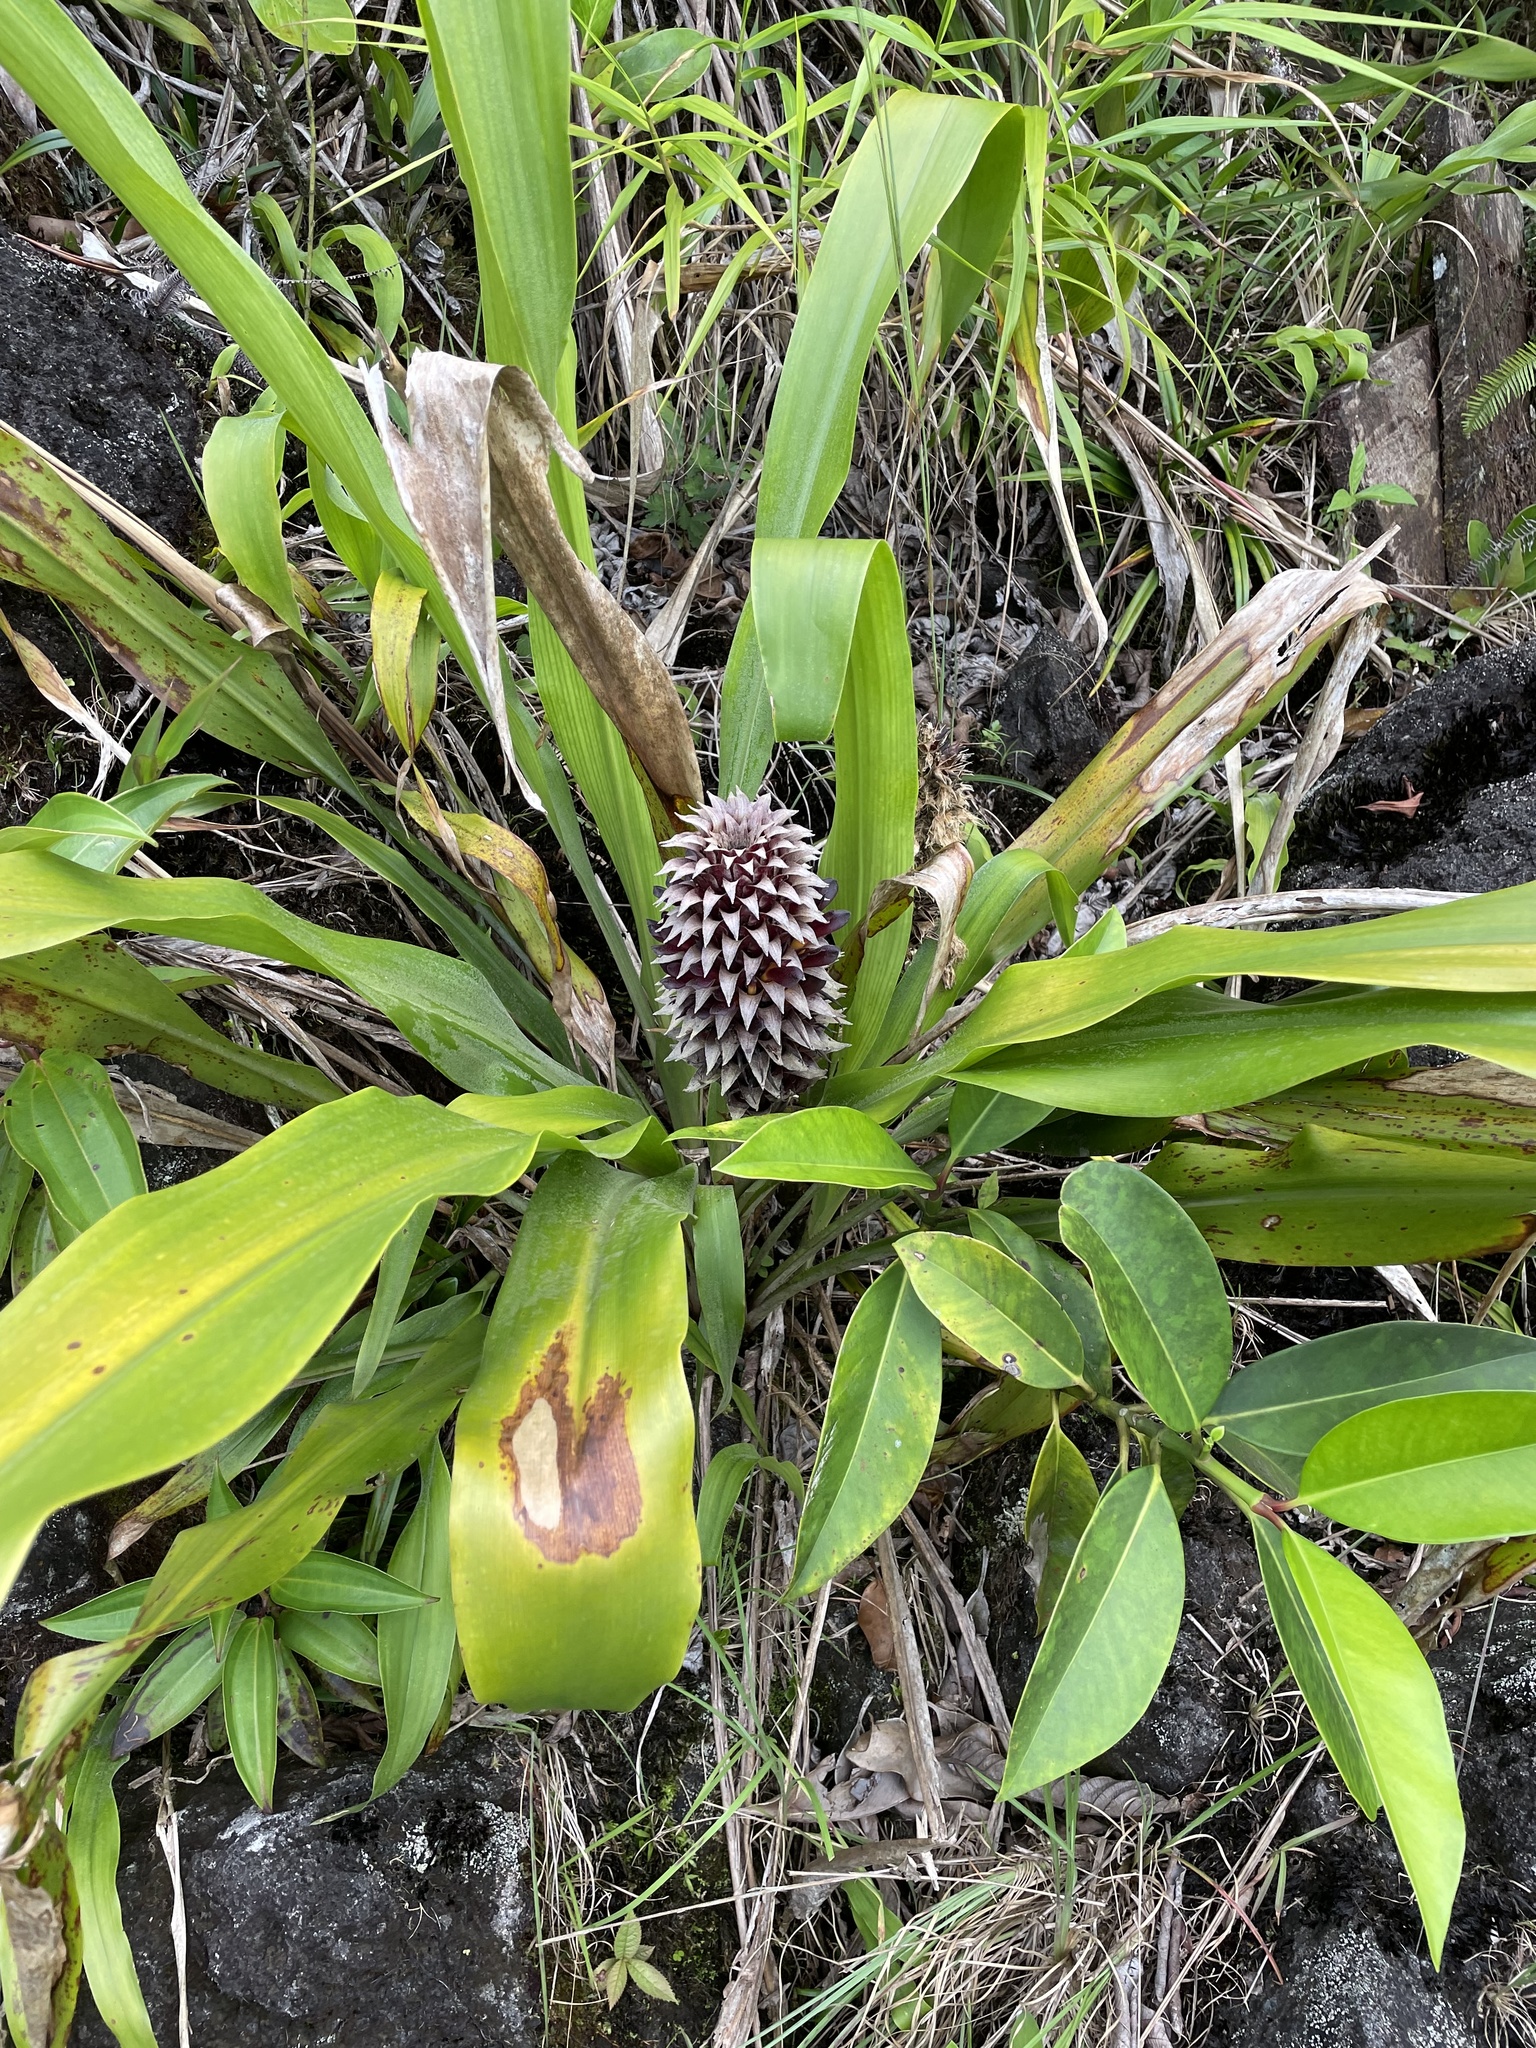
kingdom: Plantae
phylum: Tracheophyta
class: Liliopsida
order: Poales
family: Bromeliaceae
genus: Pitcairnia
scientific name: Pitcairnia funkiae
